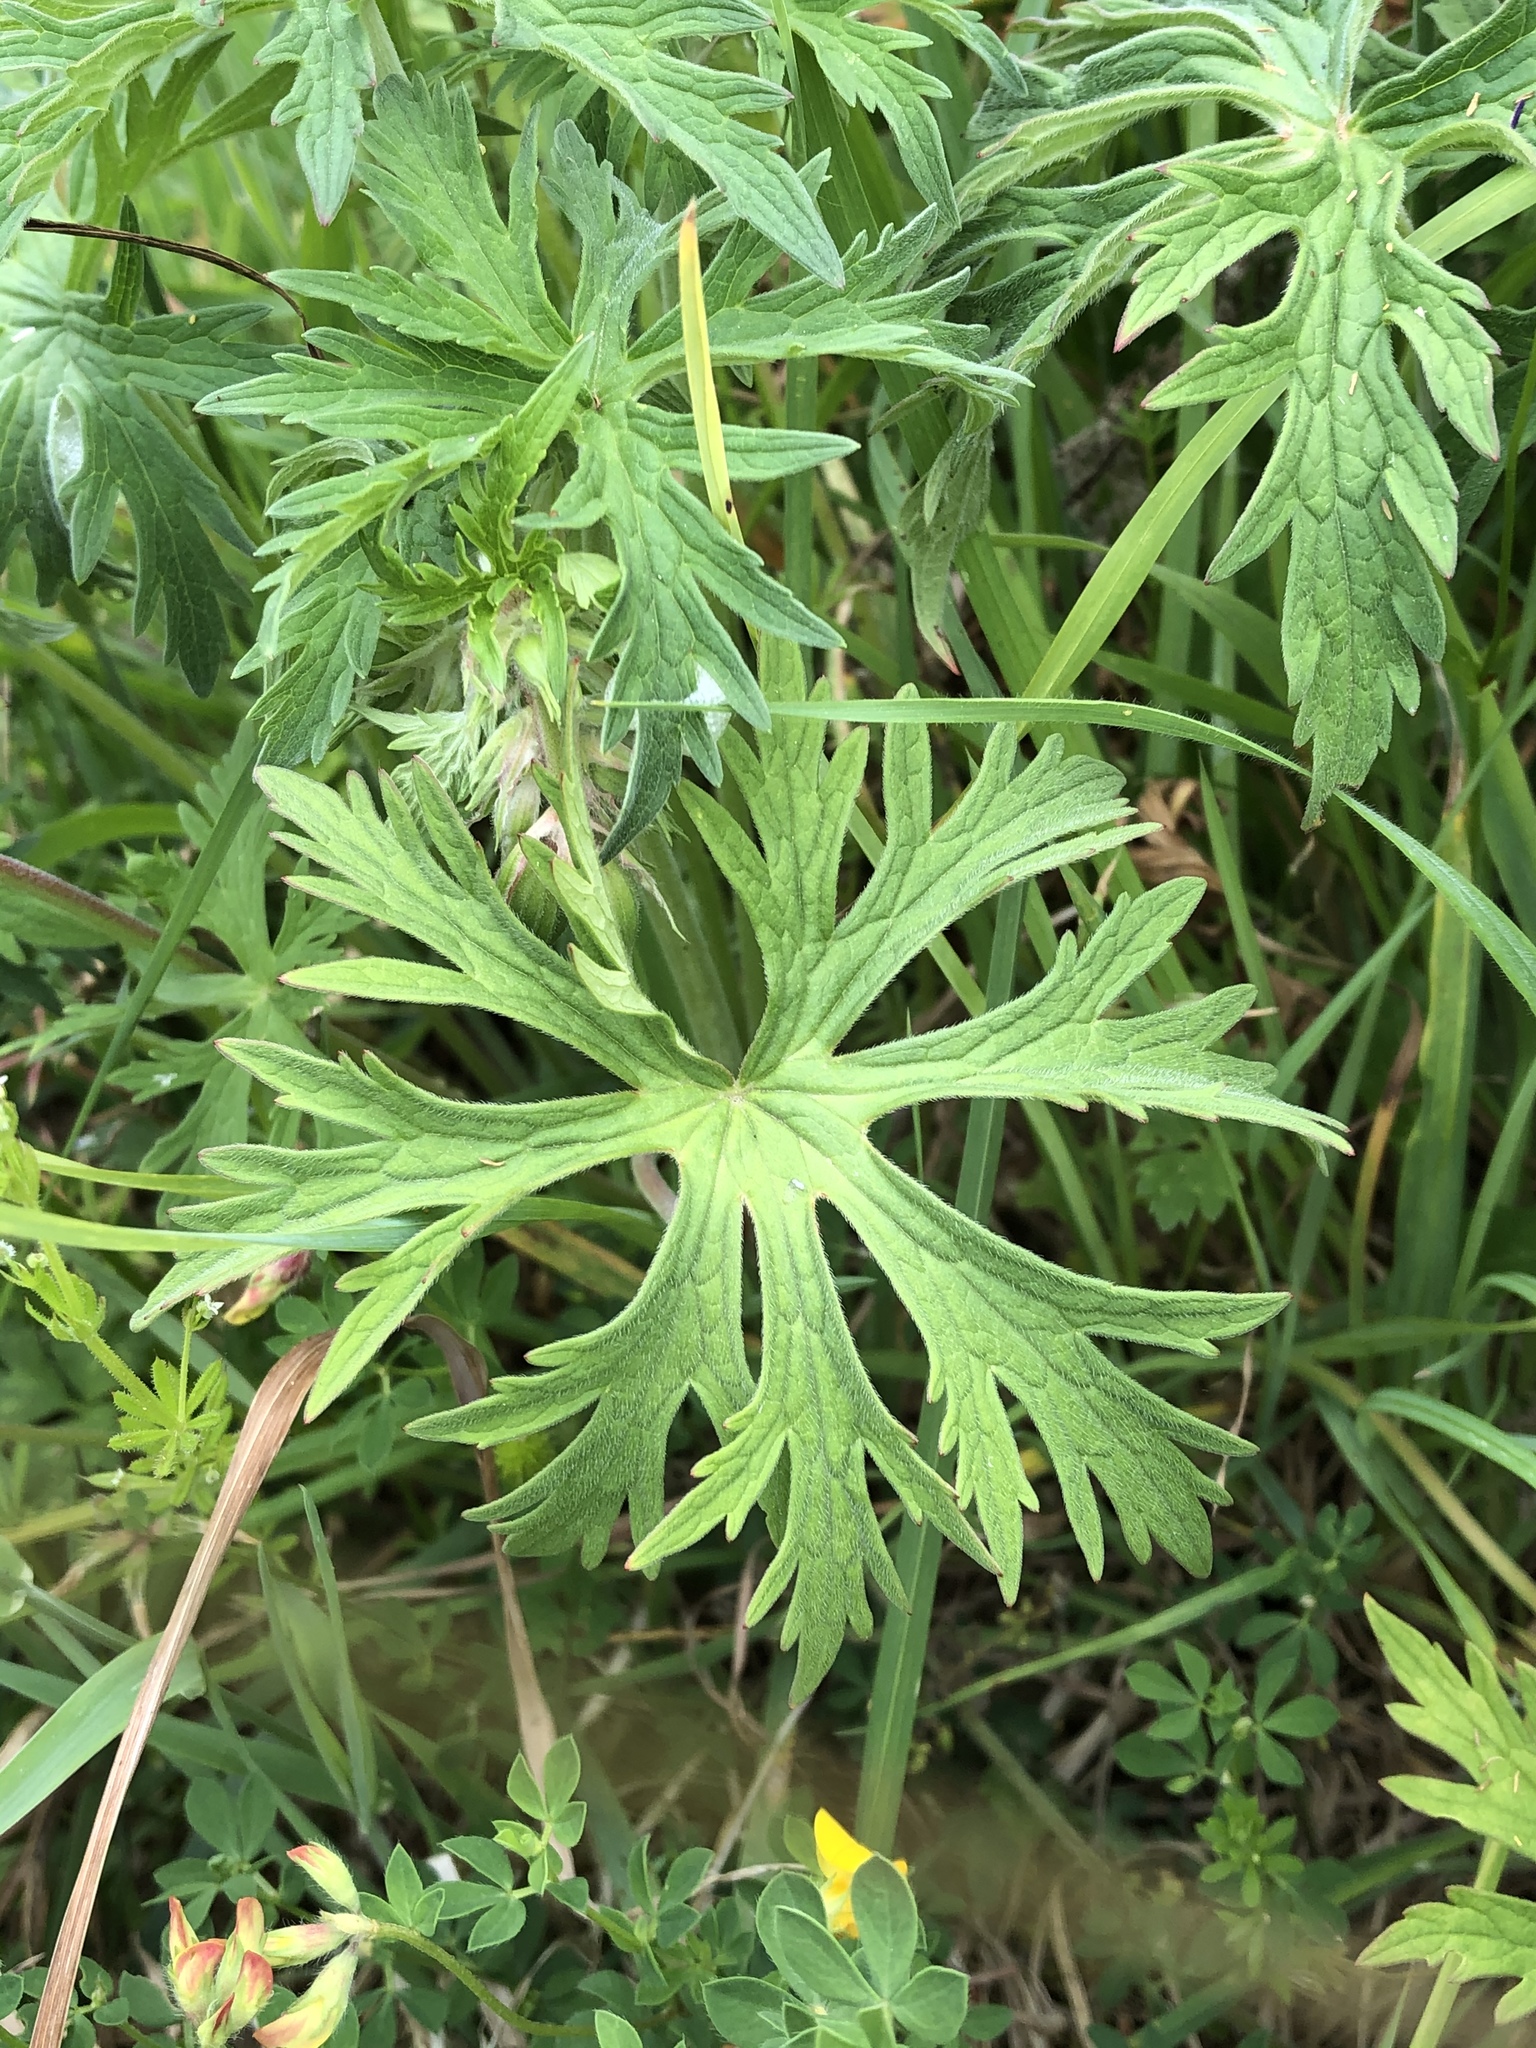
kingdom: Plantae
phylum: Tracheophyta
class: Magnoliopsida
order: Geraniales
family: Geraniaceae
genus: Geranium
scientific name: Geranium pratense
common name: Meadow crane's-bill
